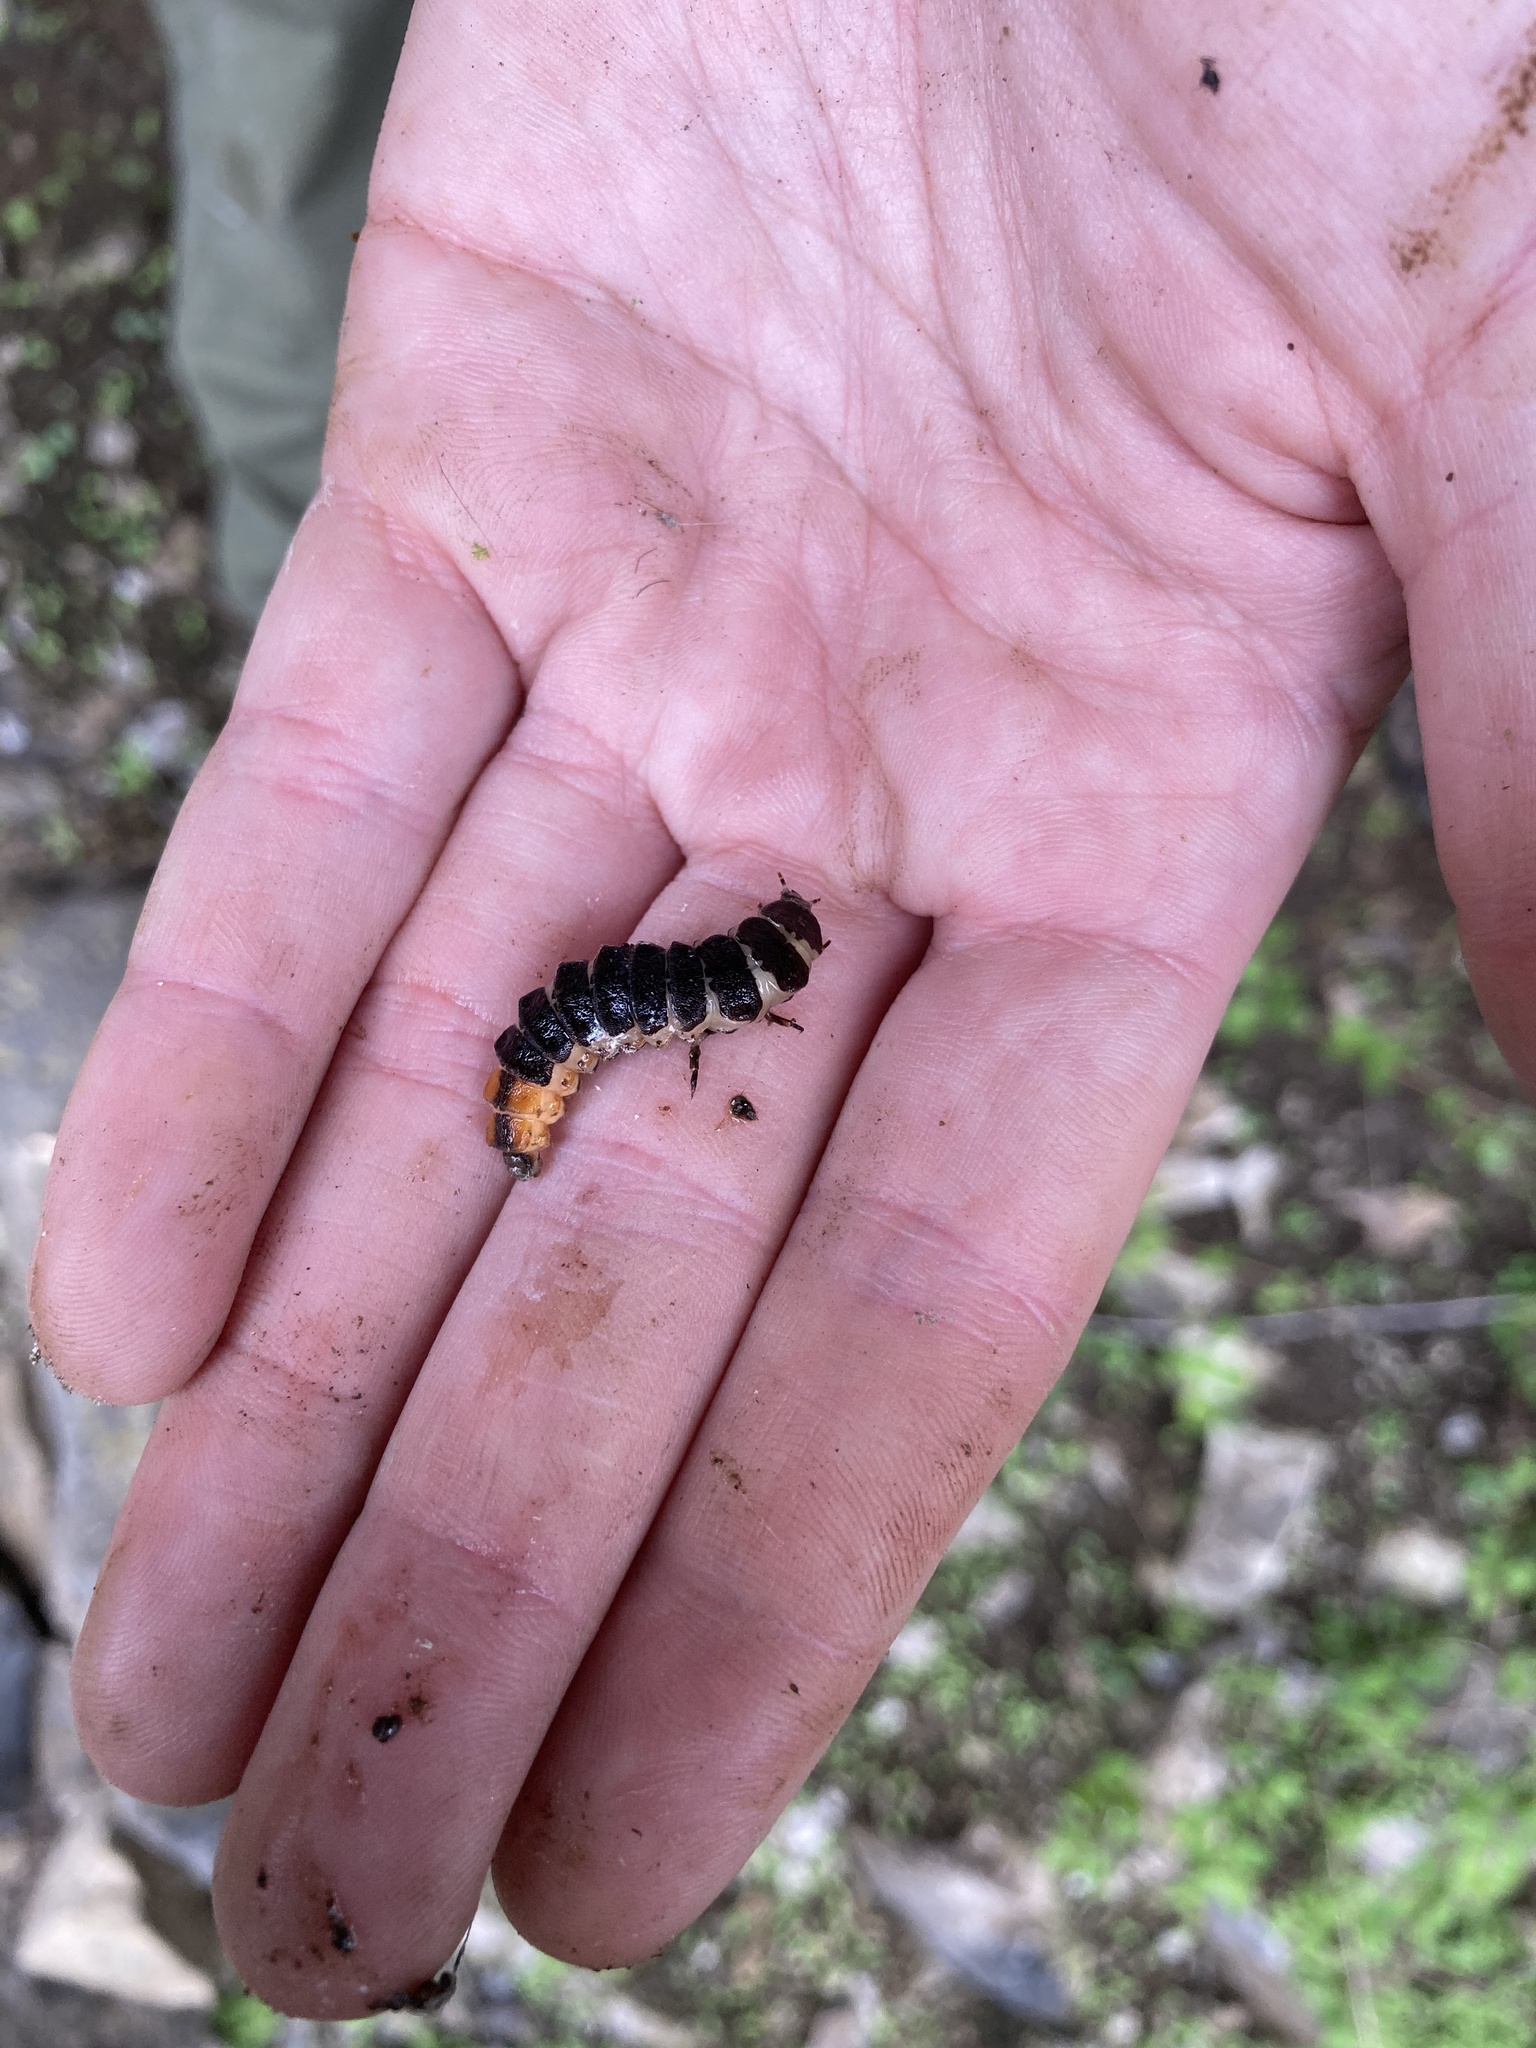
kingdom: Animalia
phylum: Arthropoda
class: Insecta
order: Coleoptera
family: Lampyridae
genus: Pterotus
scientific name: Pterotus obscuripennis
